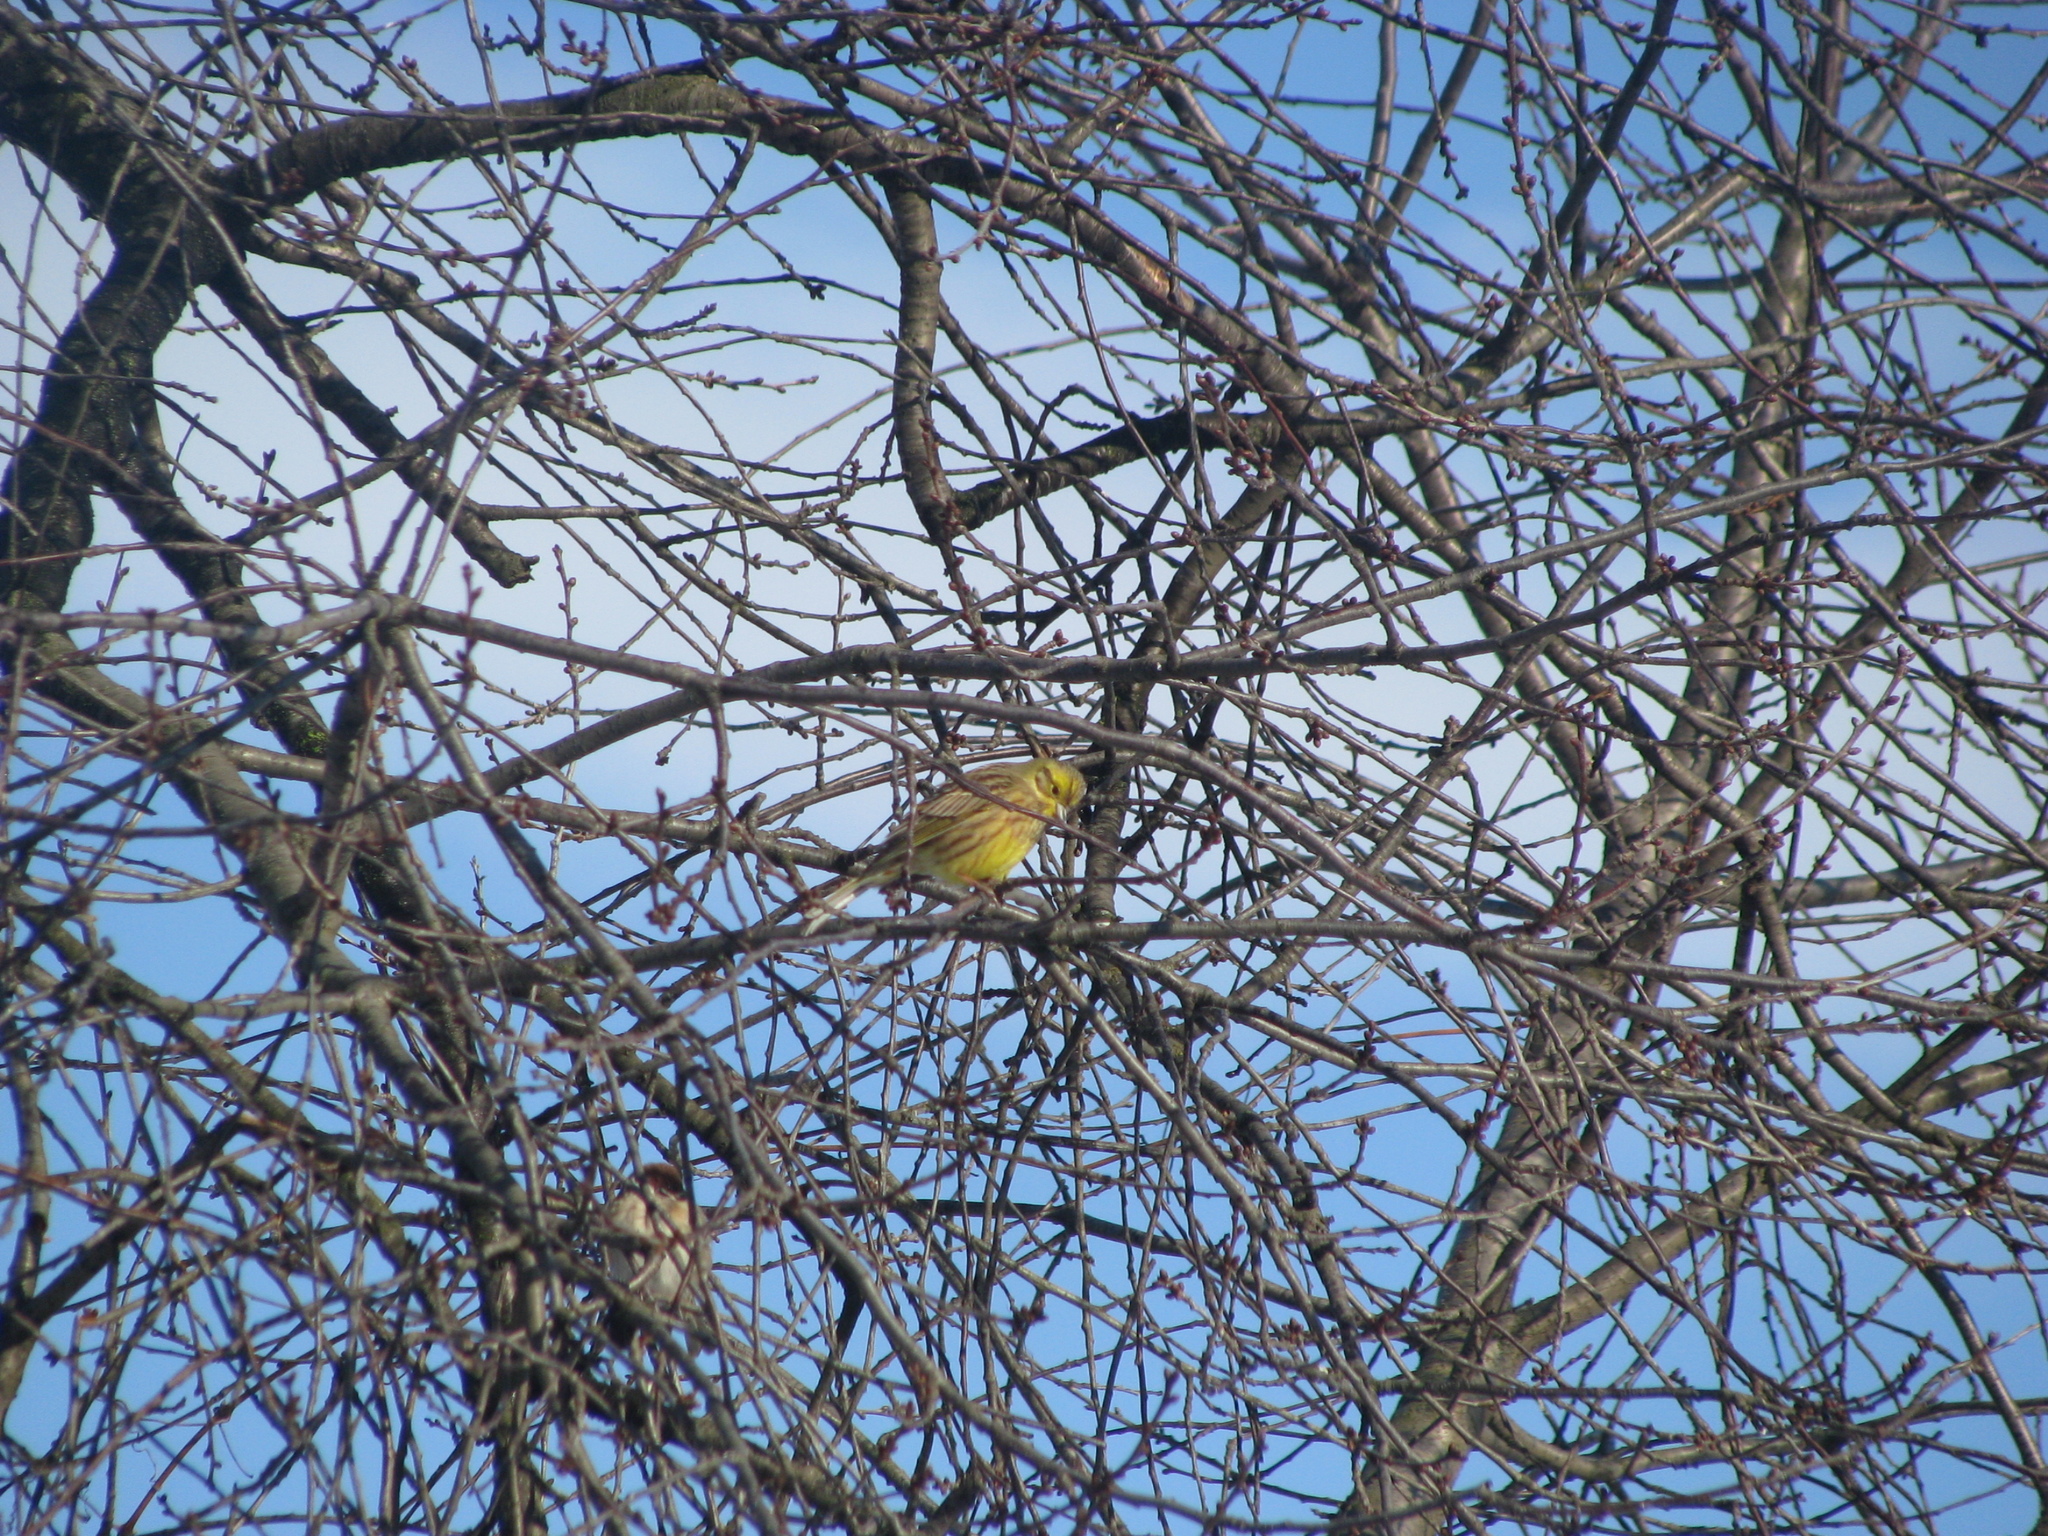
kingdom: Animalia
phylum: Chordata
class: Aves
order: Passeriformes
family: Emberizidae
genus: Emberiza
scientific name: Emberiza citrinella
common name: Yellowhammer
